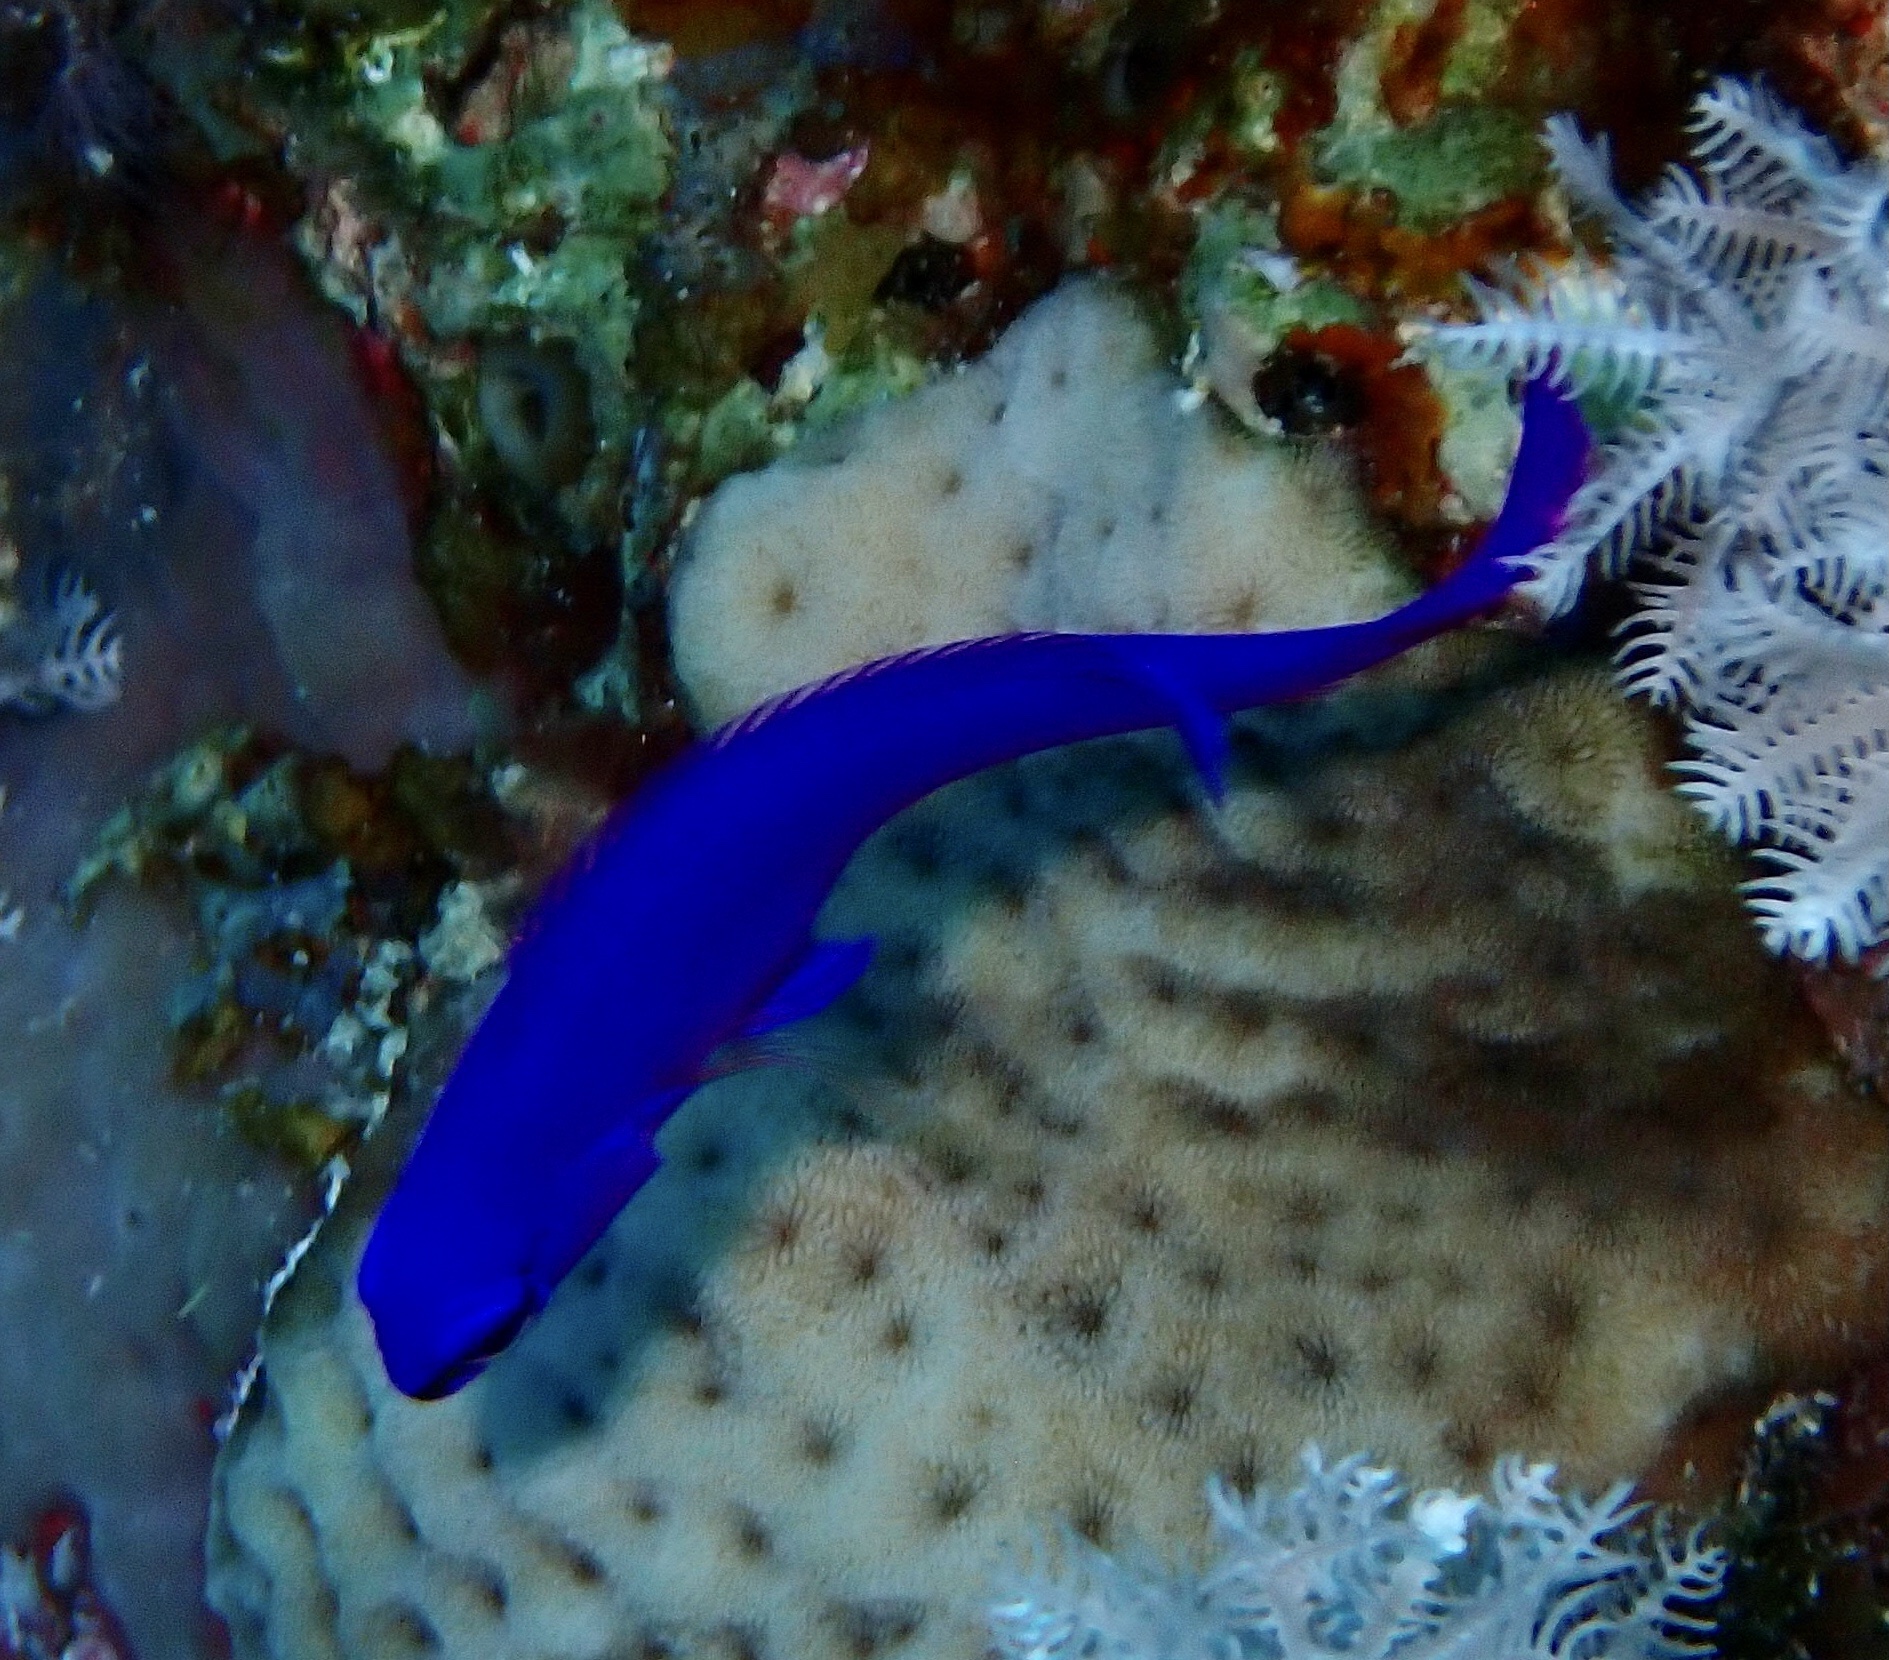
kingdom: Animalia
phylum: Chordata
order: Perciformes
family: Pseudochromidae
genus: Pseudochromis
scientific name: Pseudochromis fridmani
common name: Orchid dottyback
